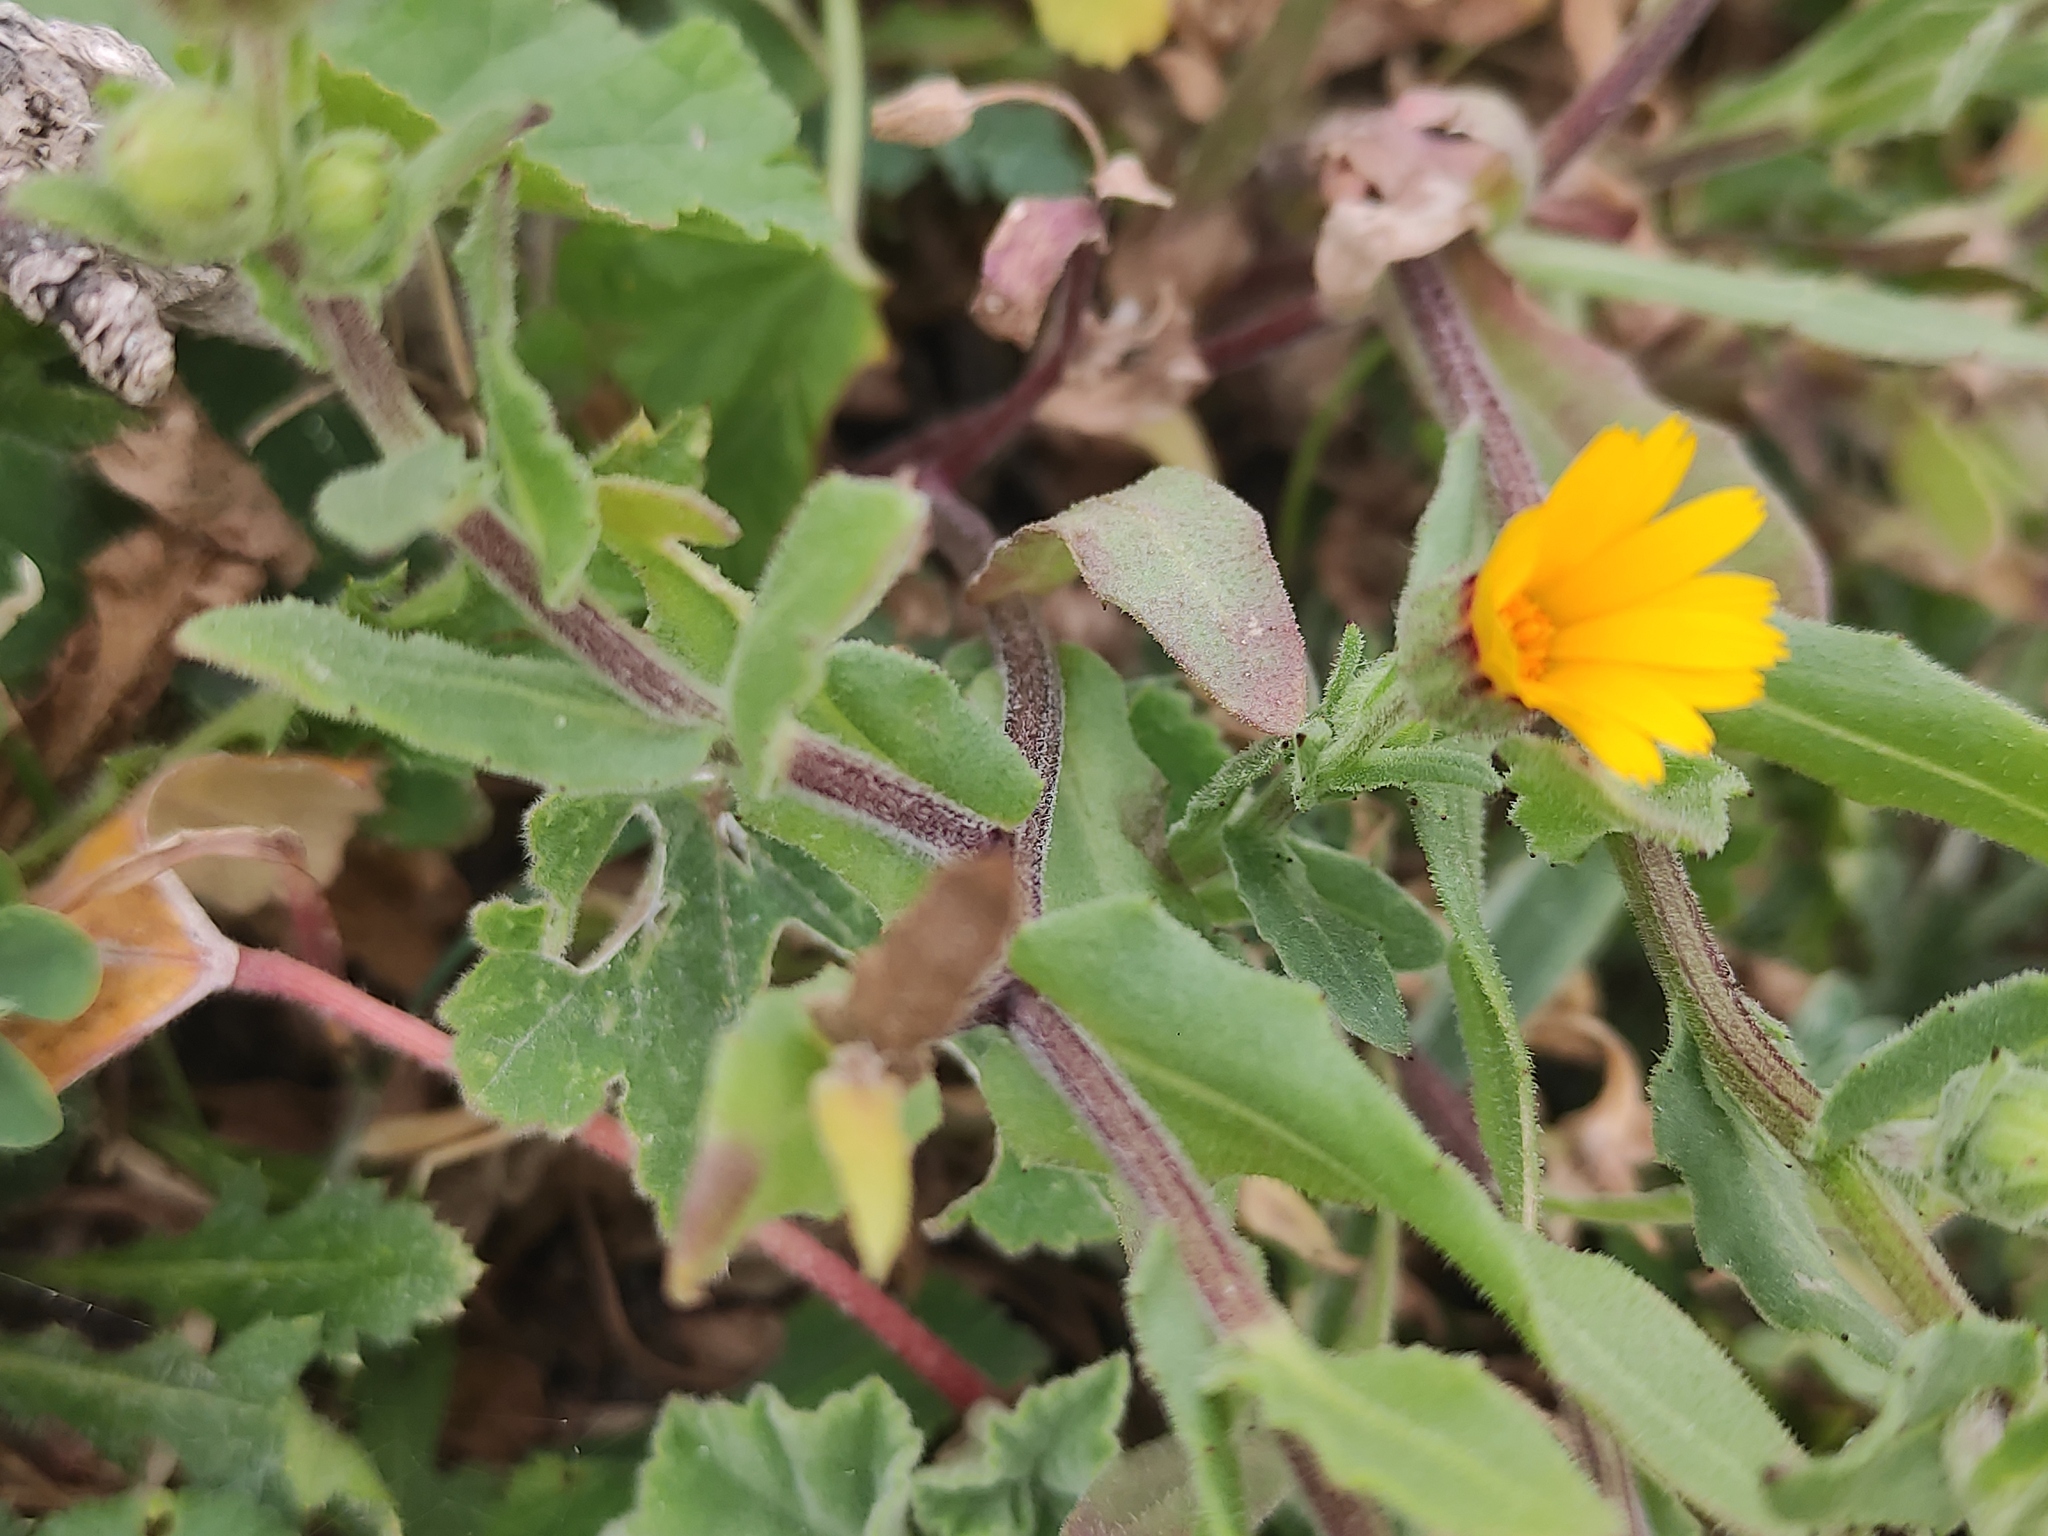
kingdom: Plantae
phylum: Tracheophyta
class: Magnoliopsida
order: Asterales
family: Asteraceae
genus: Calendula
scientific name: Calendula arvensis
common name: Field marigold
